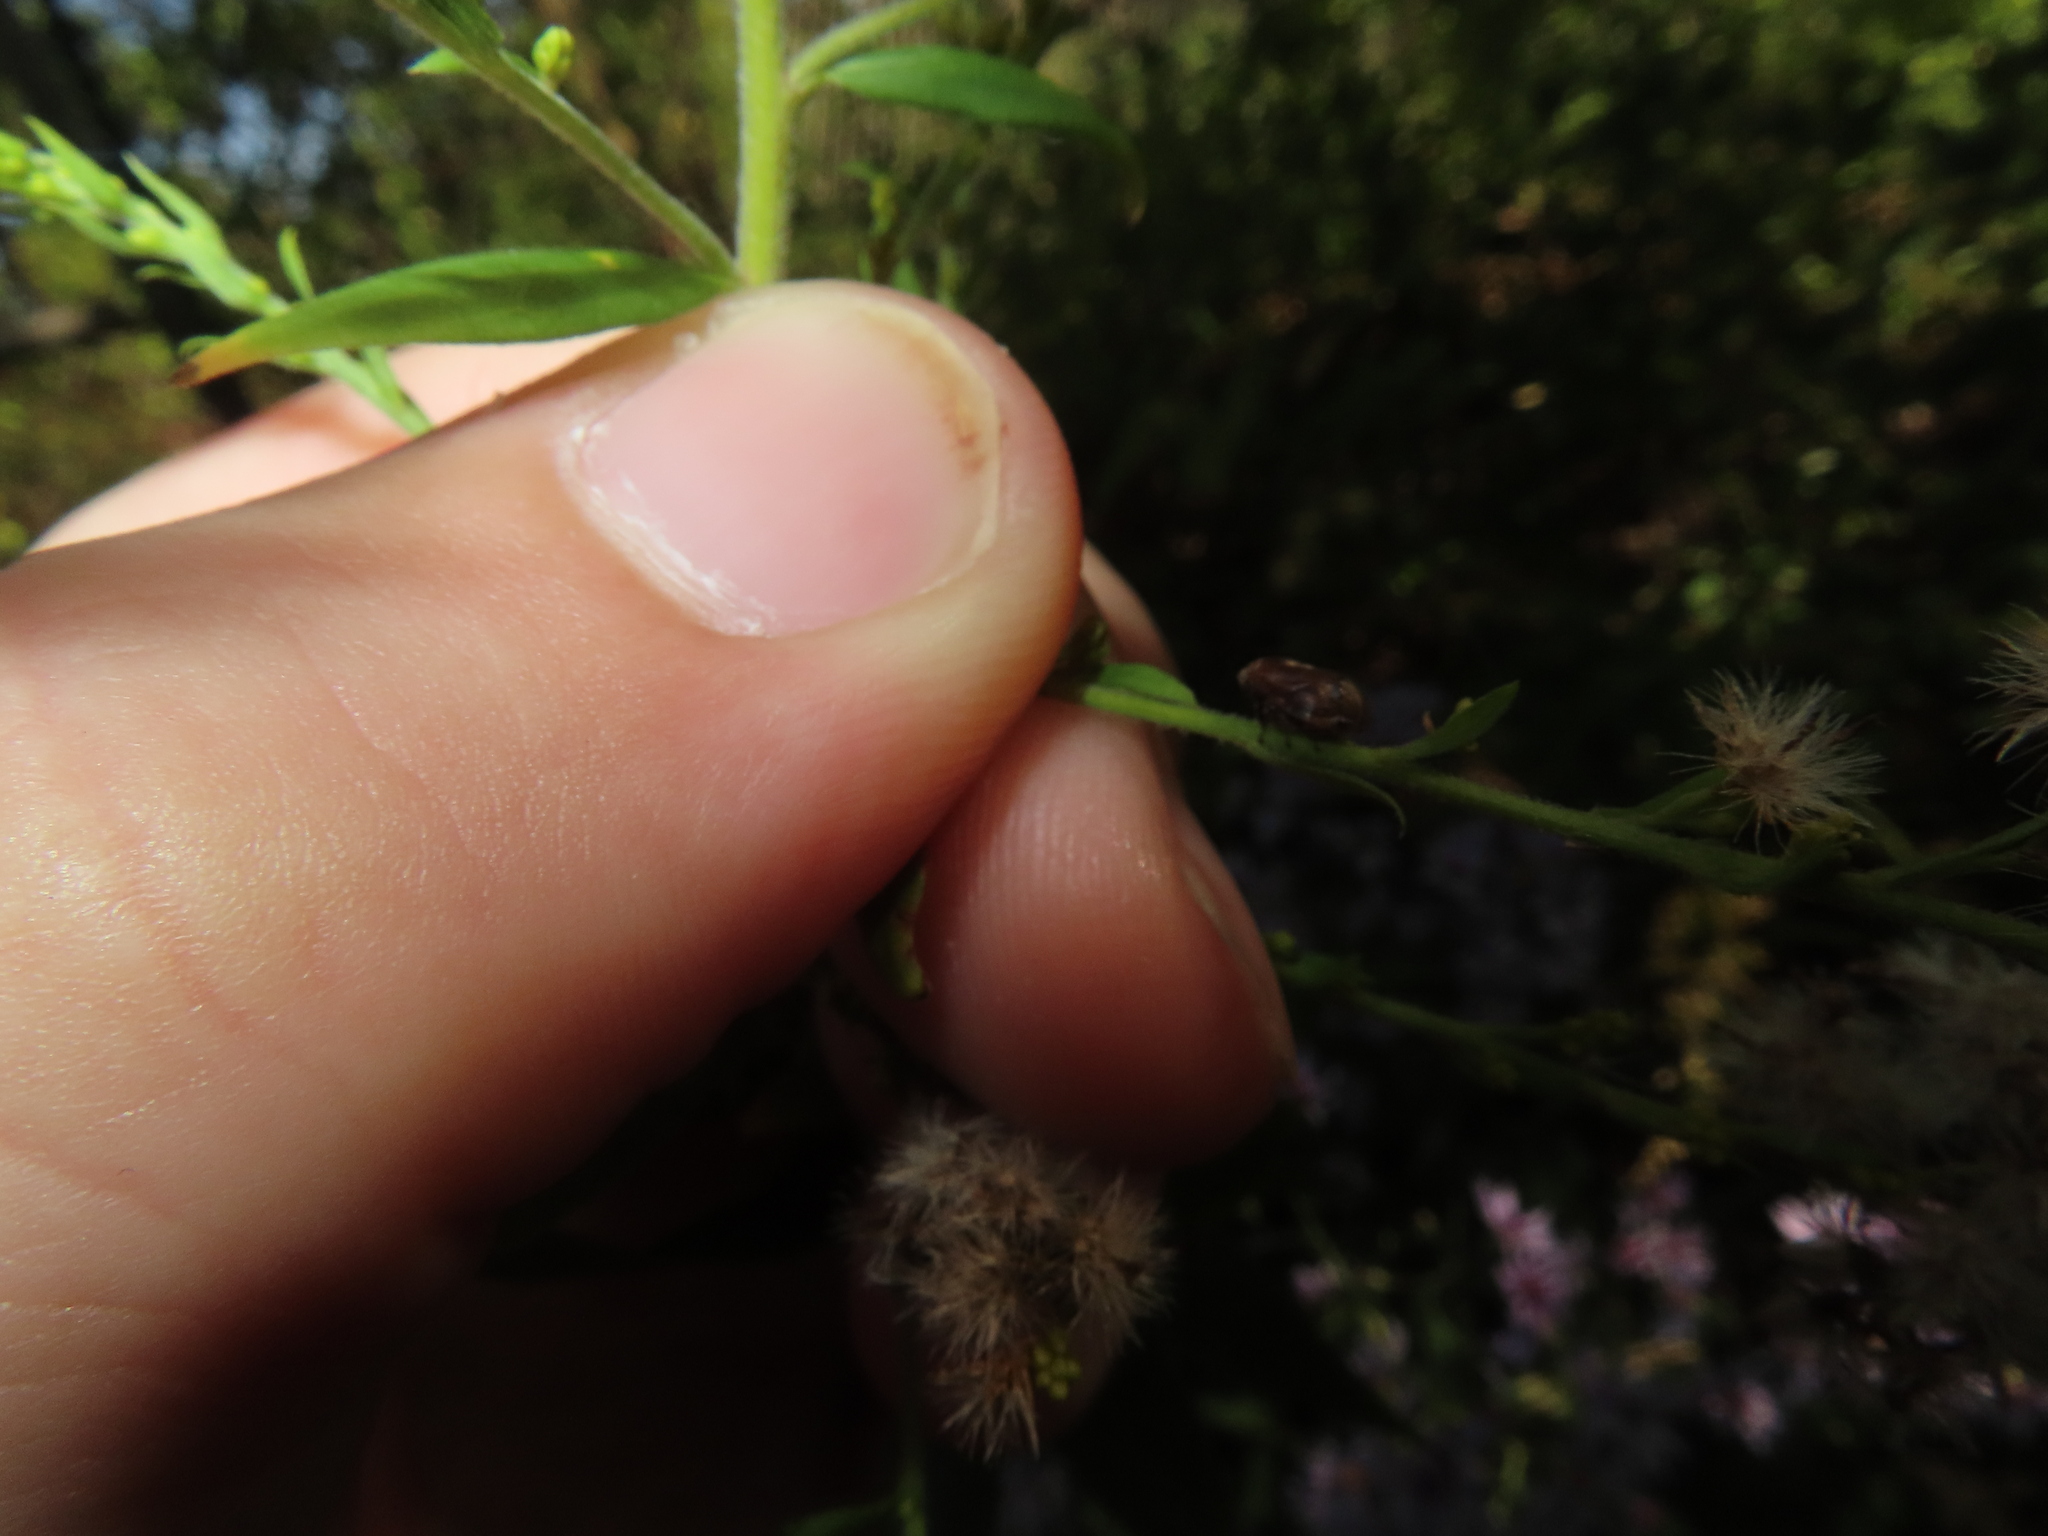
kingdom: Animalia
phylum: Arthropoda
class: Insecta
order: Hemiptera
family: Clastopteridae
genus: Clastoptera
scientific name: Clastoptera obtusa
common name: Alder spittlebug
